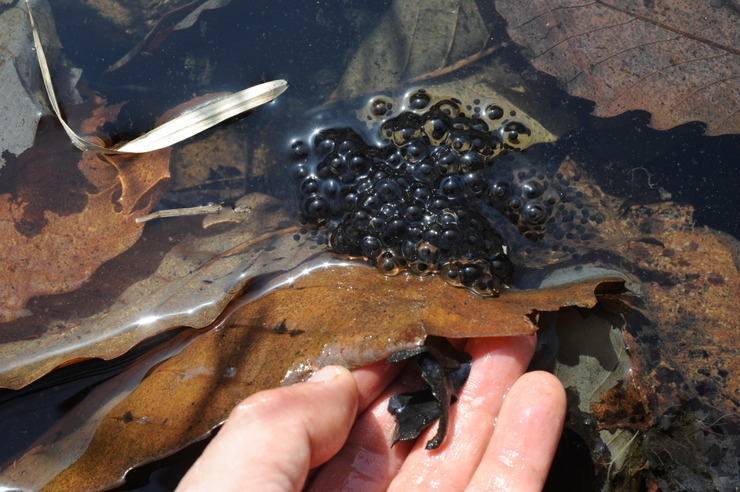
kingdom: Animalia
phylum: Chordata
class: Amphibia
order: Anura
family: Ranidae
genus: Rana
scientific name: Rana huanrenensis
